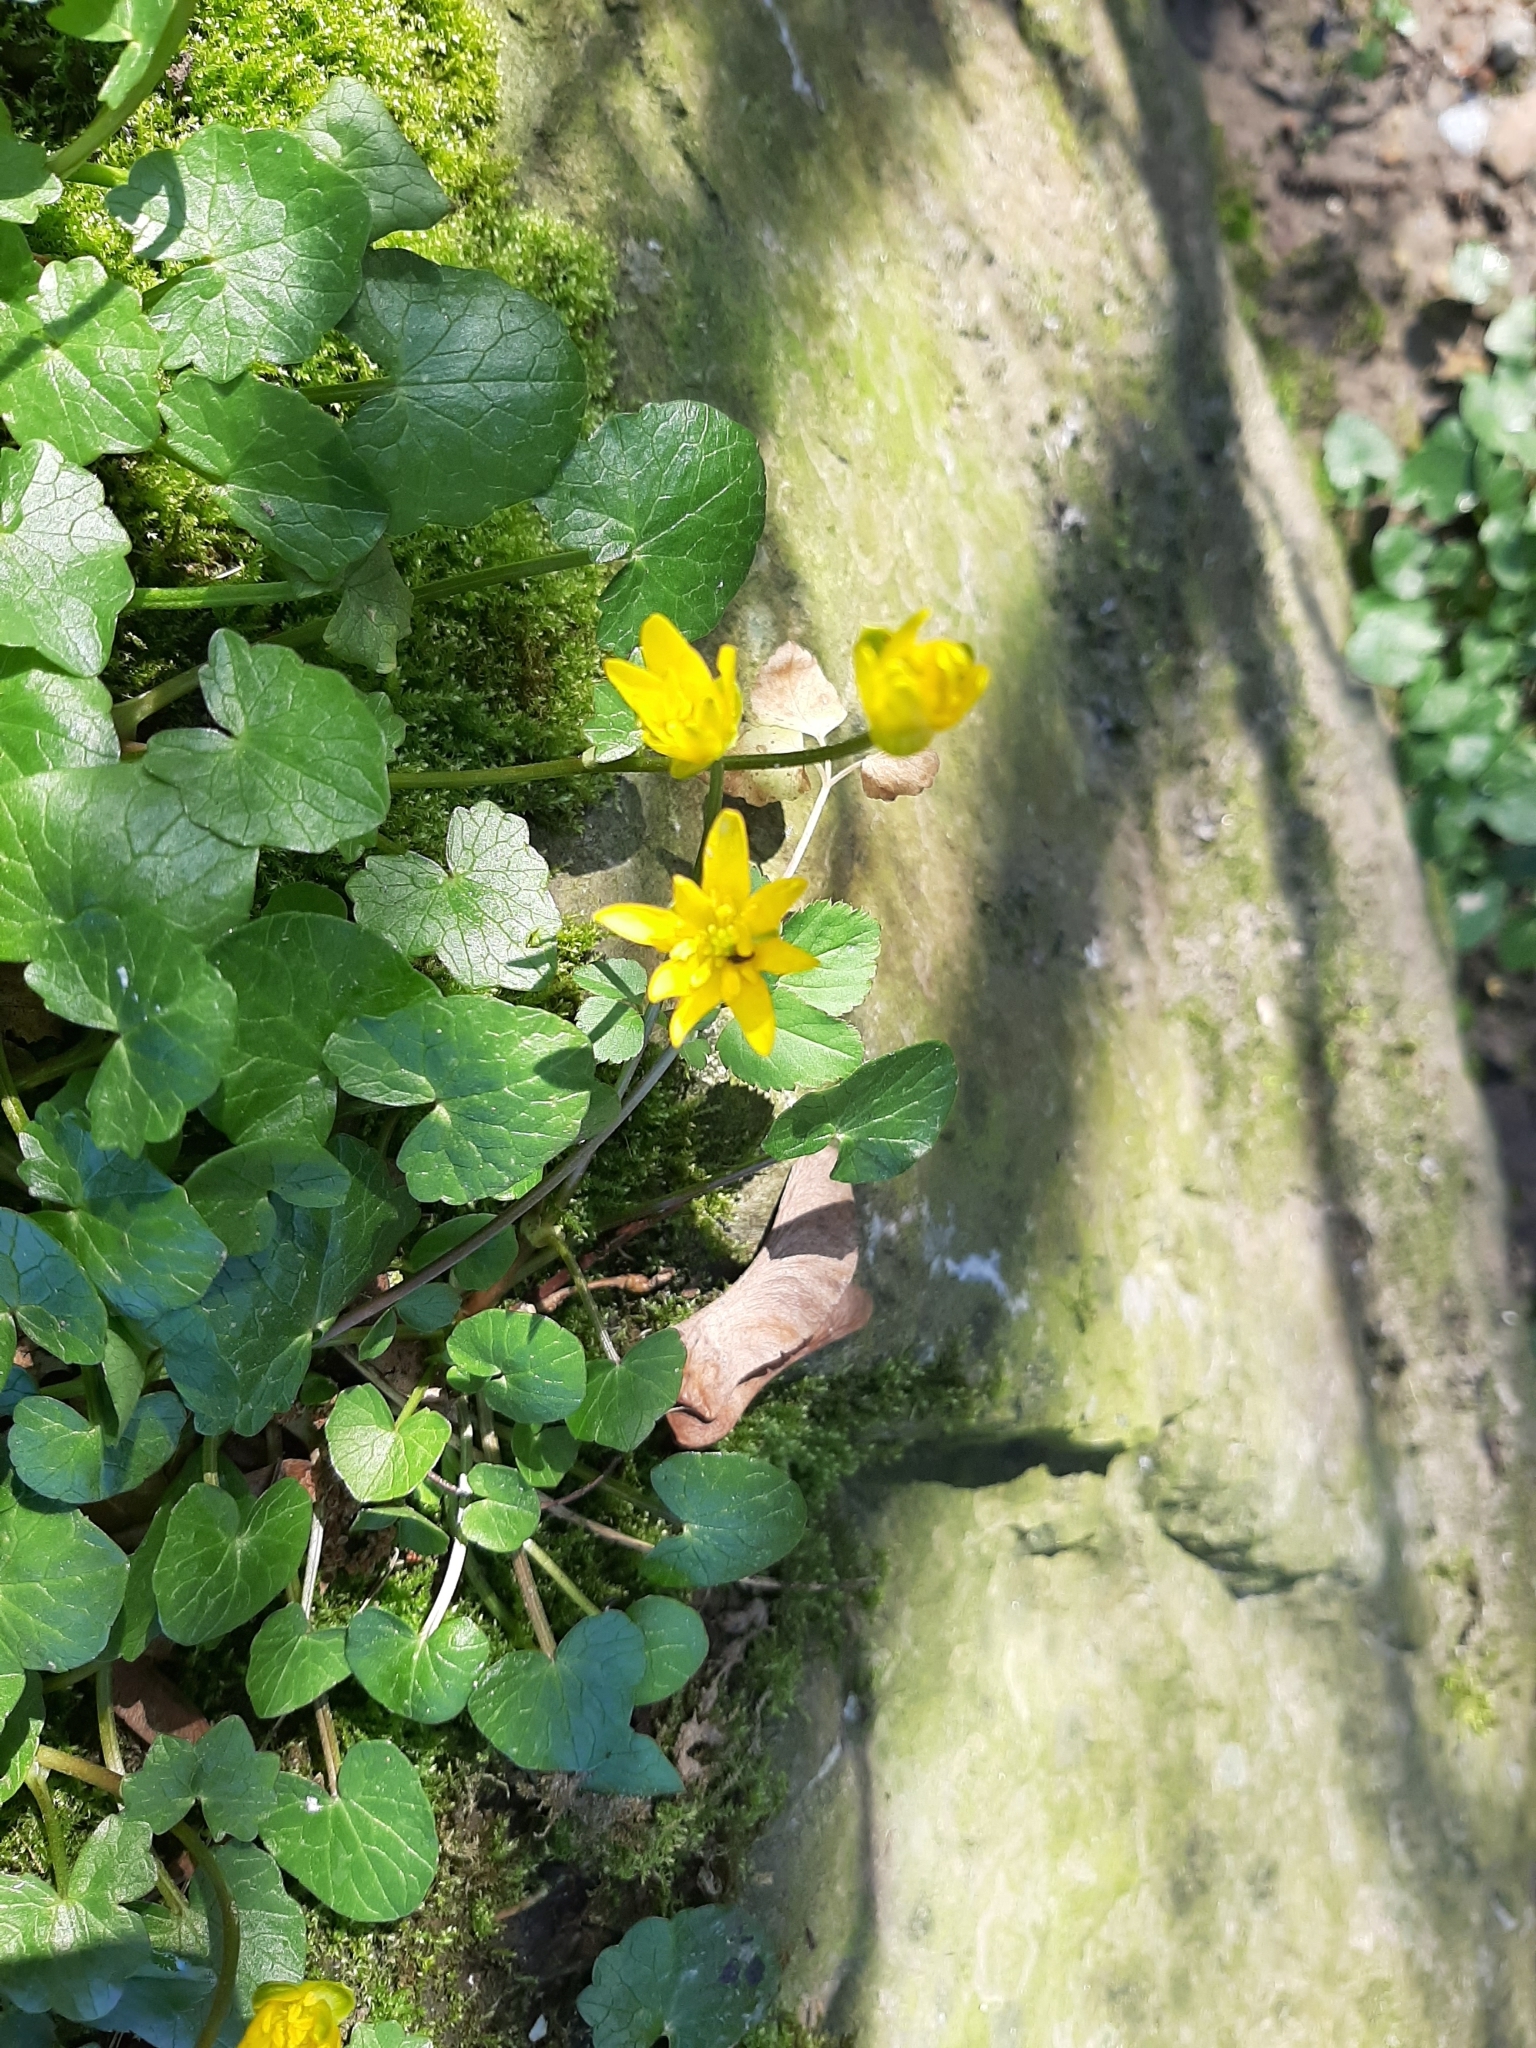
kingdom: Plantae
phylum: Tracheophyta
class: Magnoliopsida
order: Ranunculales
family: Ranunculaceae
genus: Ficaria
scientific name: Ficaria verna
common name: Lesser celandine
